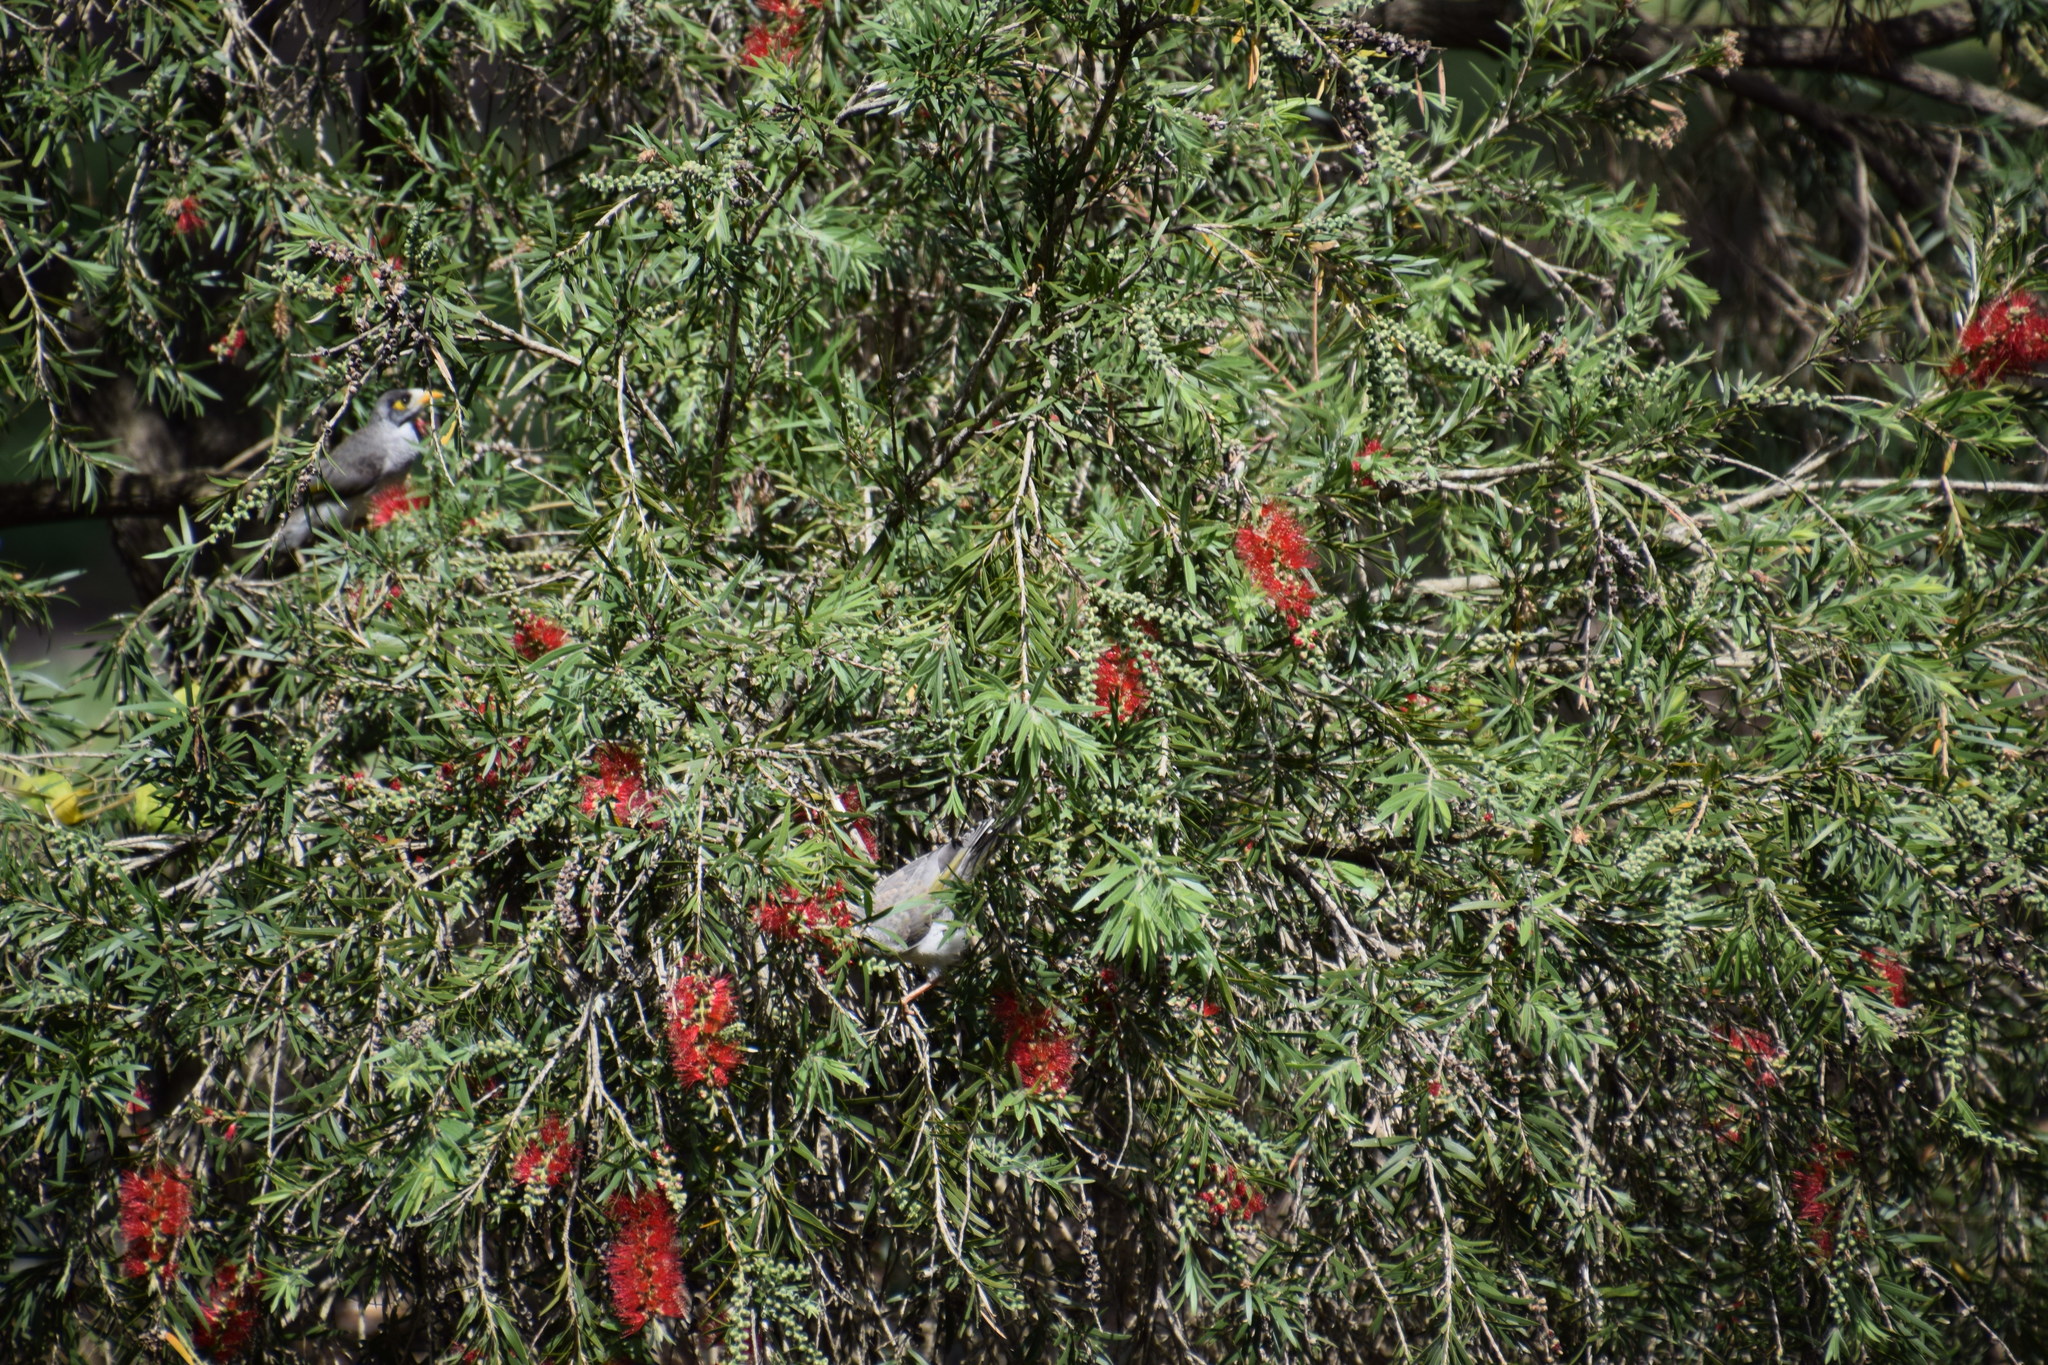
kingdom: Animalia
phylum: Chordata
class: Aves
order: Passeriformes
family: Meliphagidae
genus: Manorina
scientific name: Manorina melanocephala
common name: Noisy miner
